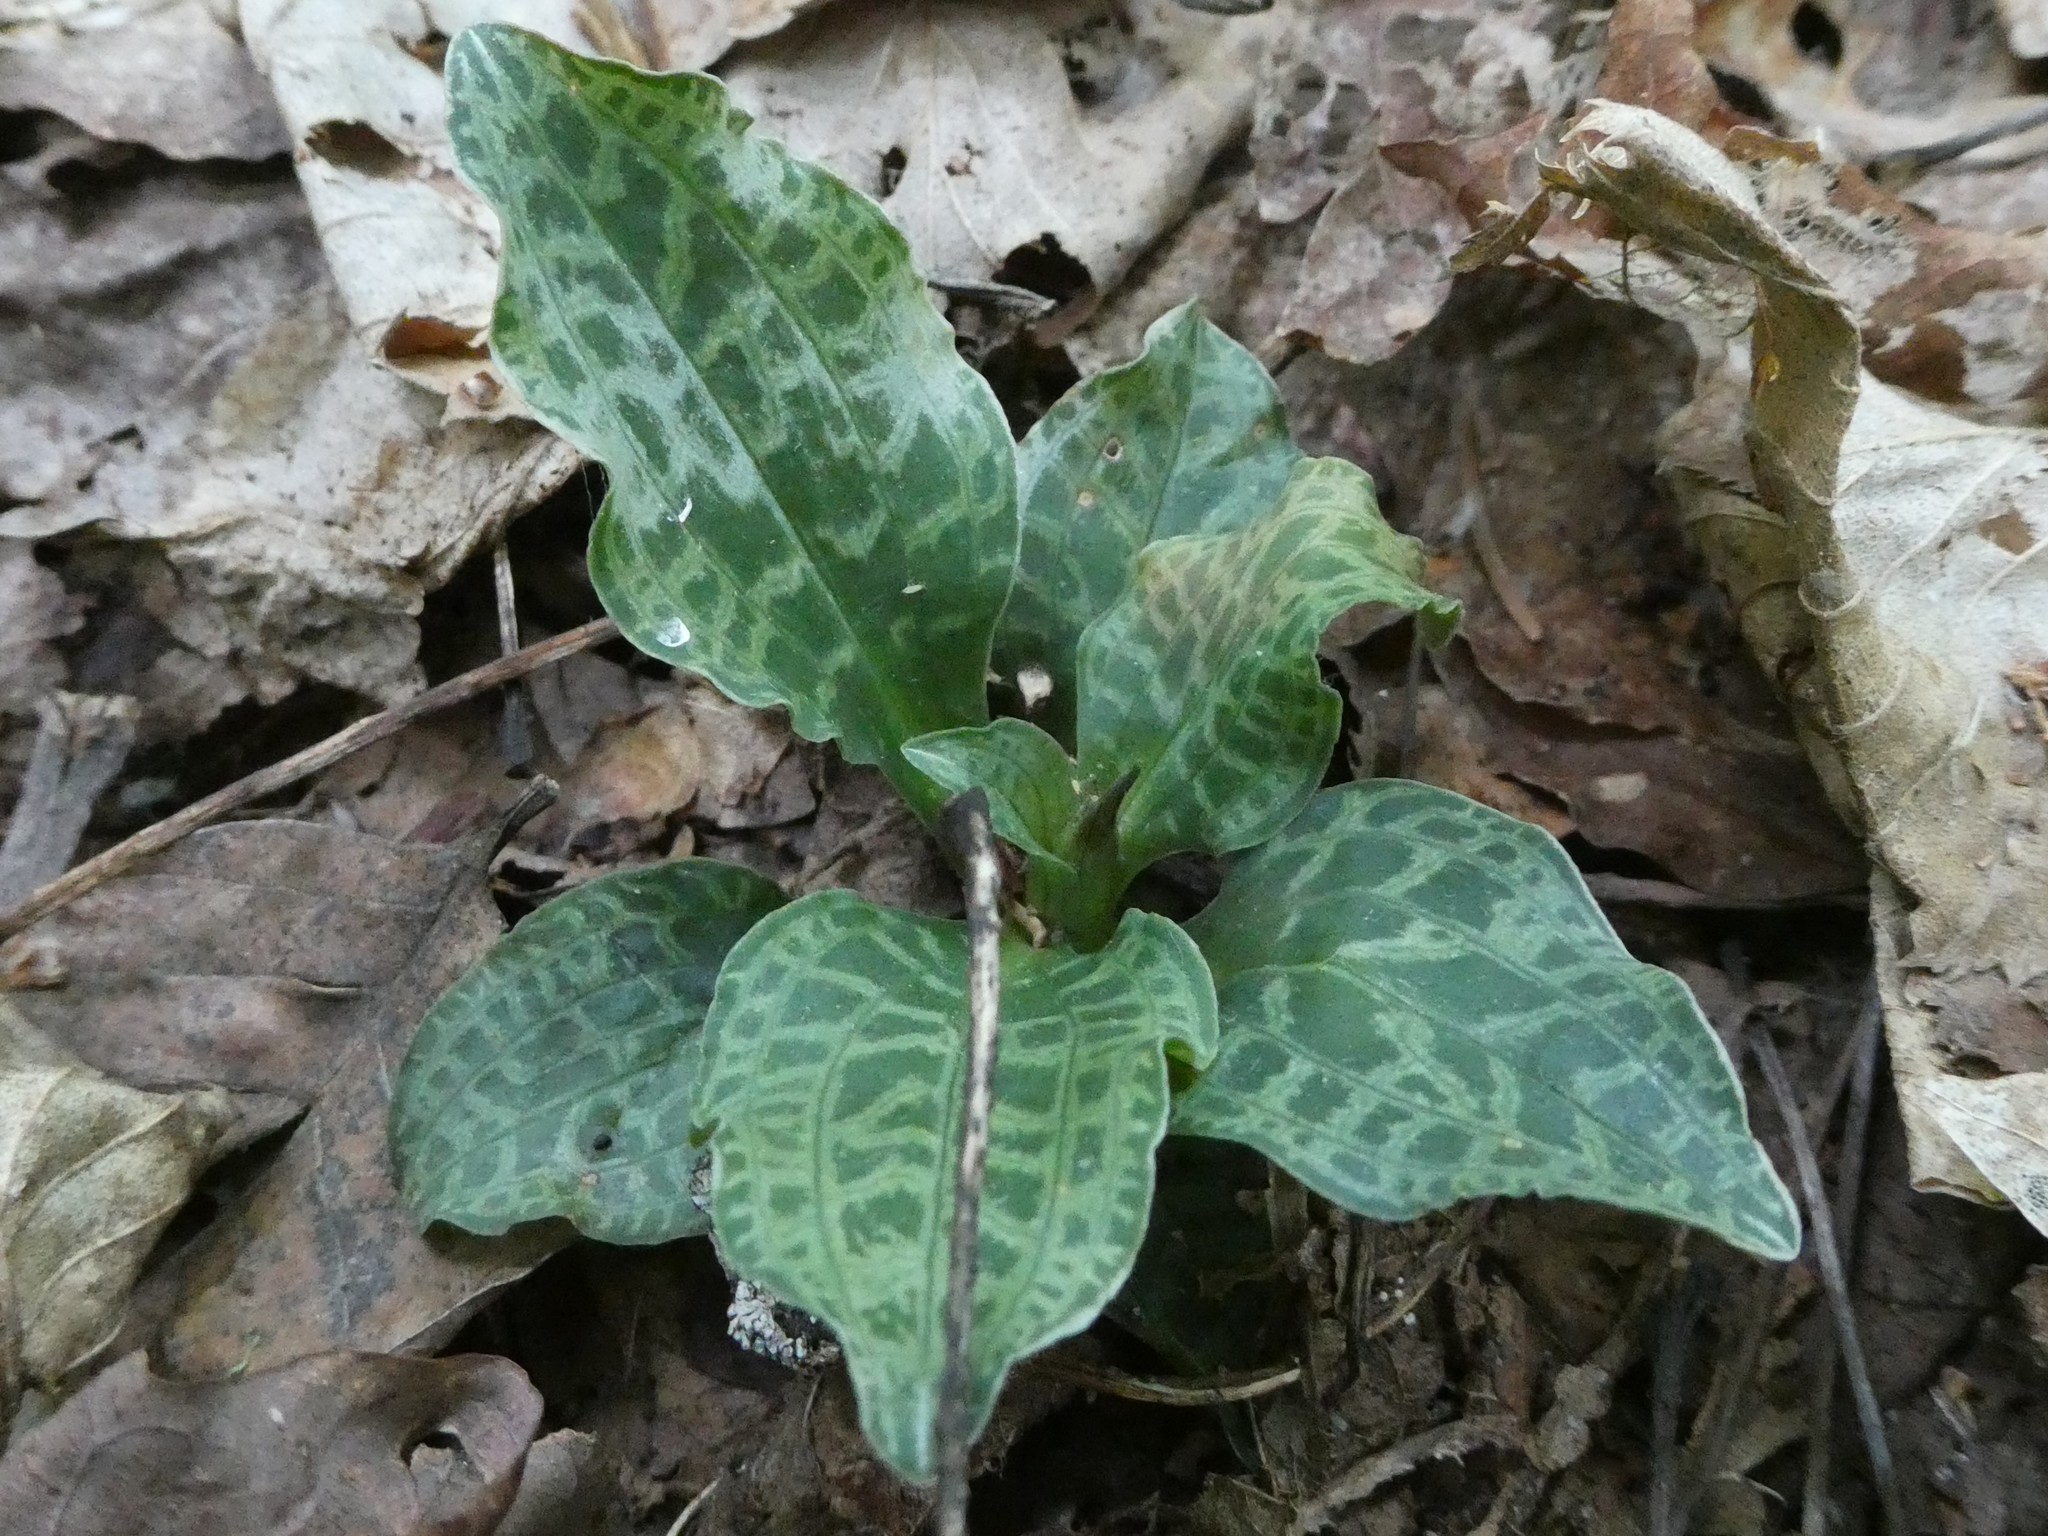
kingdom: Plantae
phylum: Tracheophyta
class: Liliopsida
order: Asparagales
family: Orchidaceae
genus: Goodyera
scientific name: Goodyera tesselata
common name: Checkered rattlesnake-plantain
